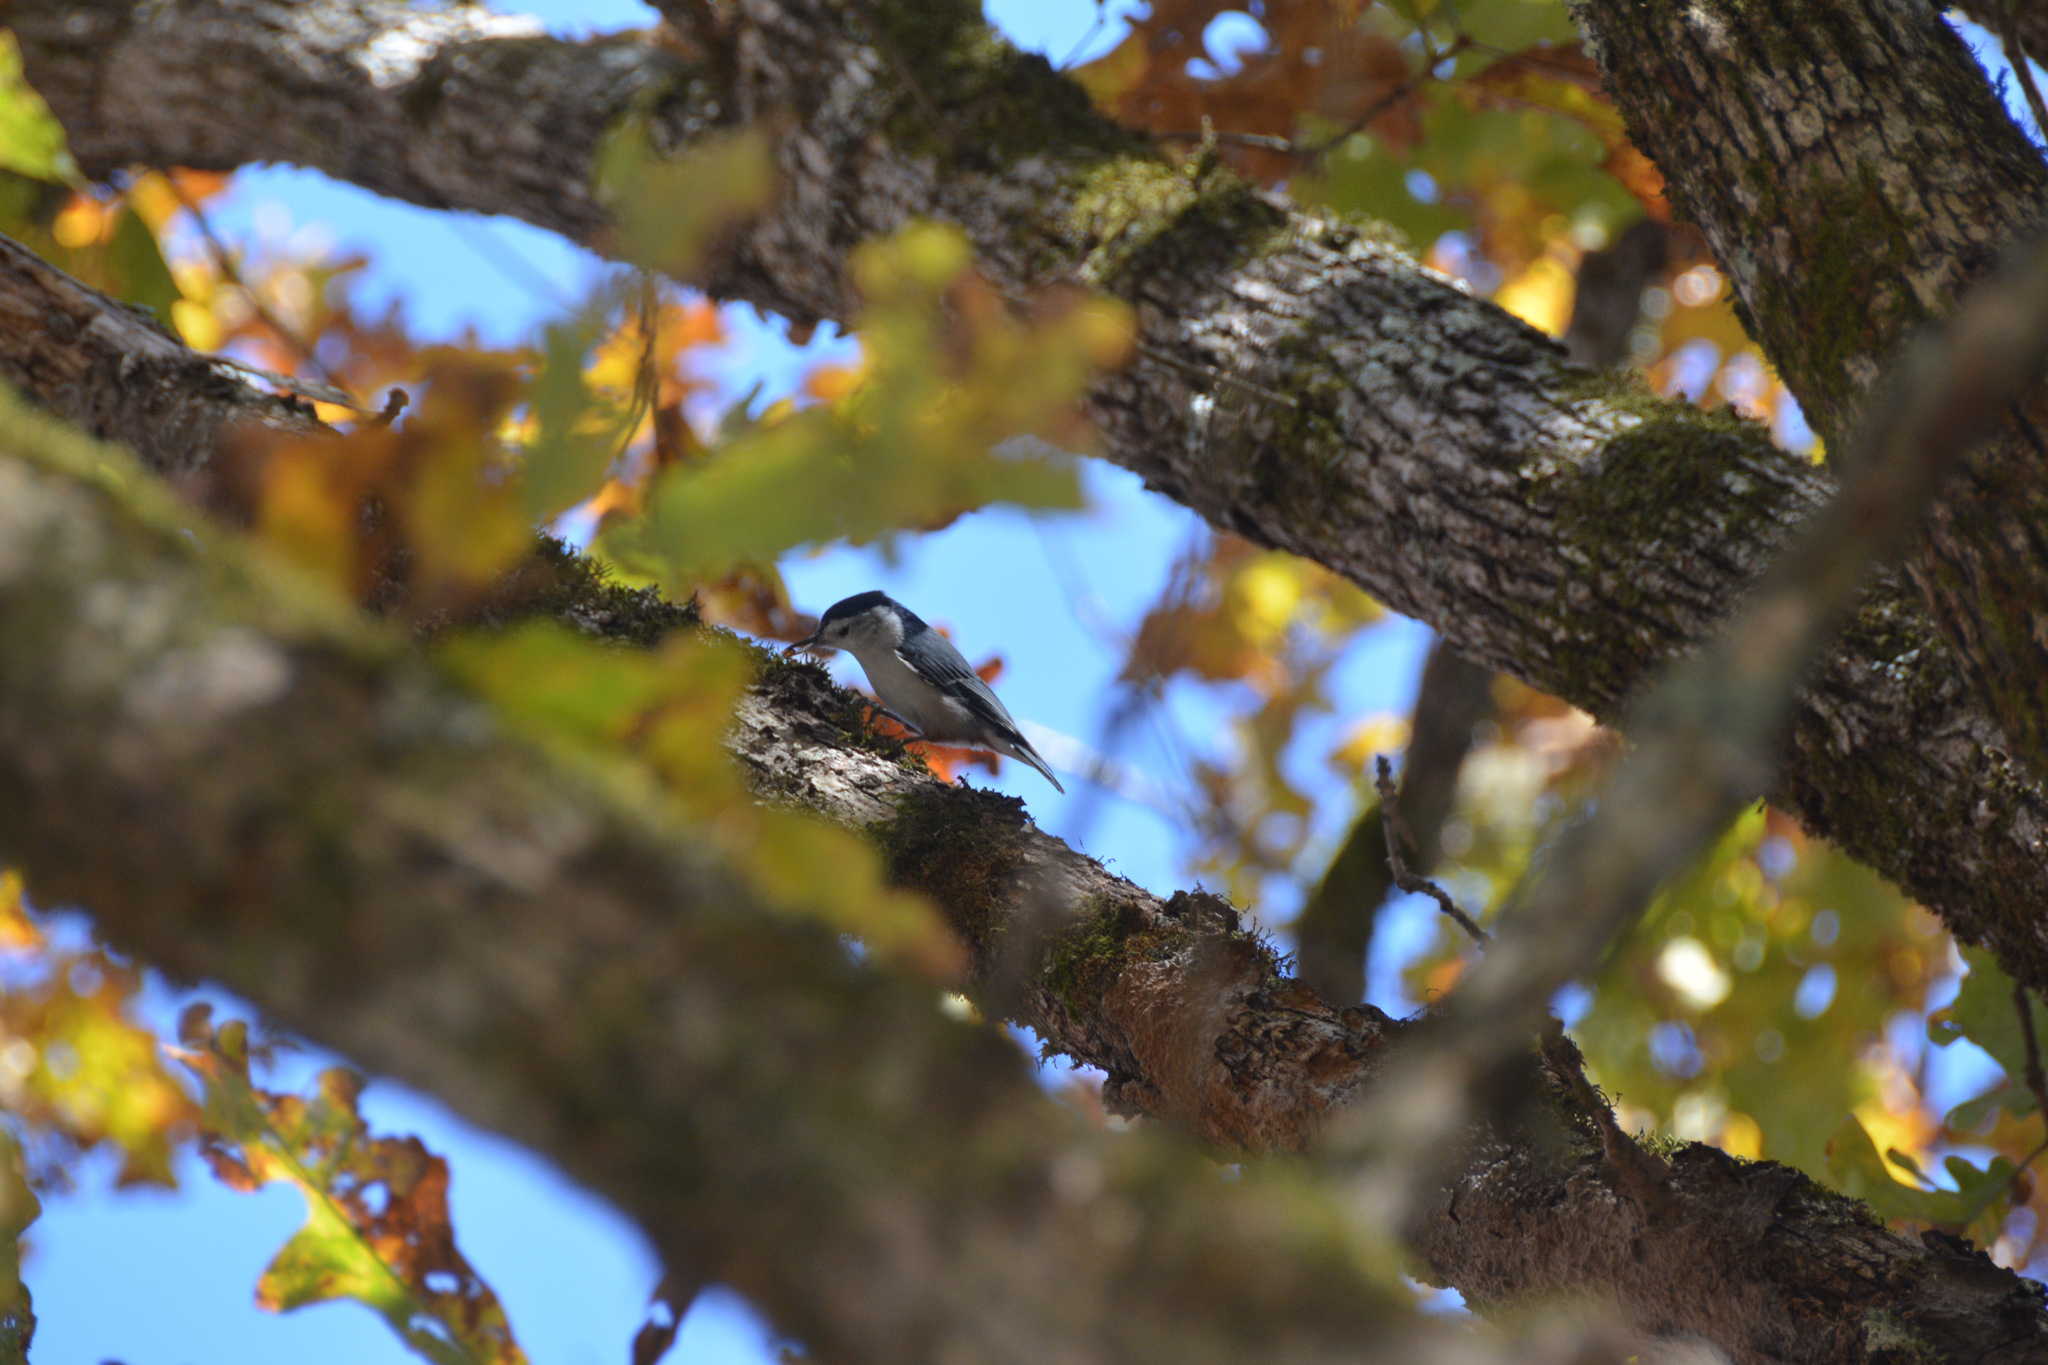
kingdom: Animalia
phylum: Chordata
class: Aves
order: Passeriformes
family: Sittidae
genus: Sitta
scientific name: Sitta carolinensis
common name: White-breasted nuthatch
